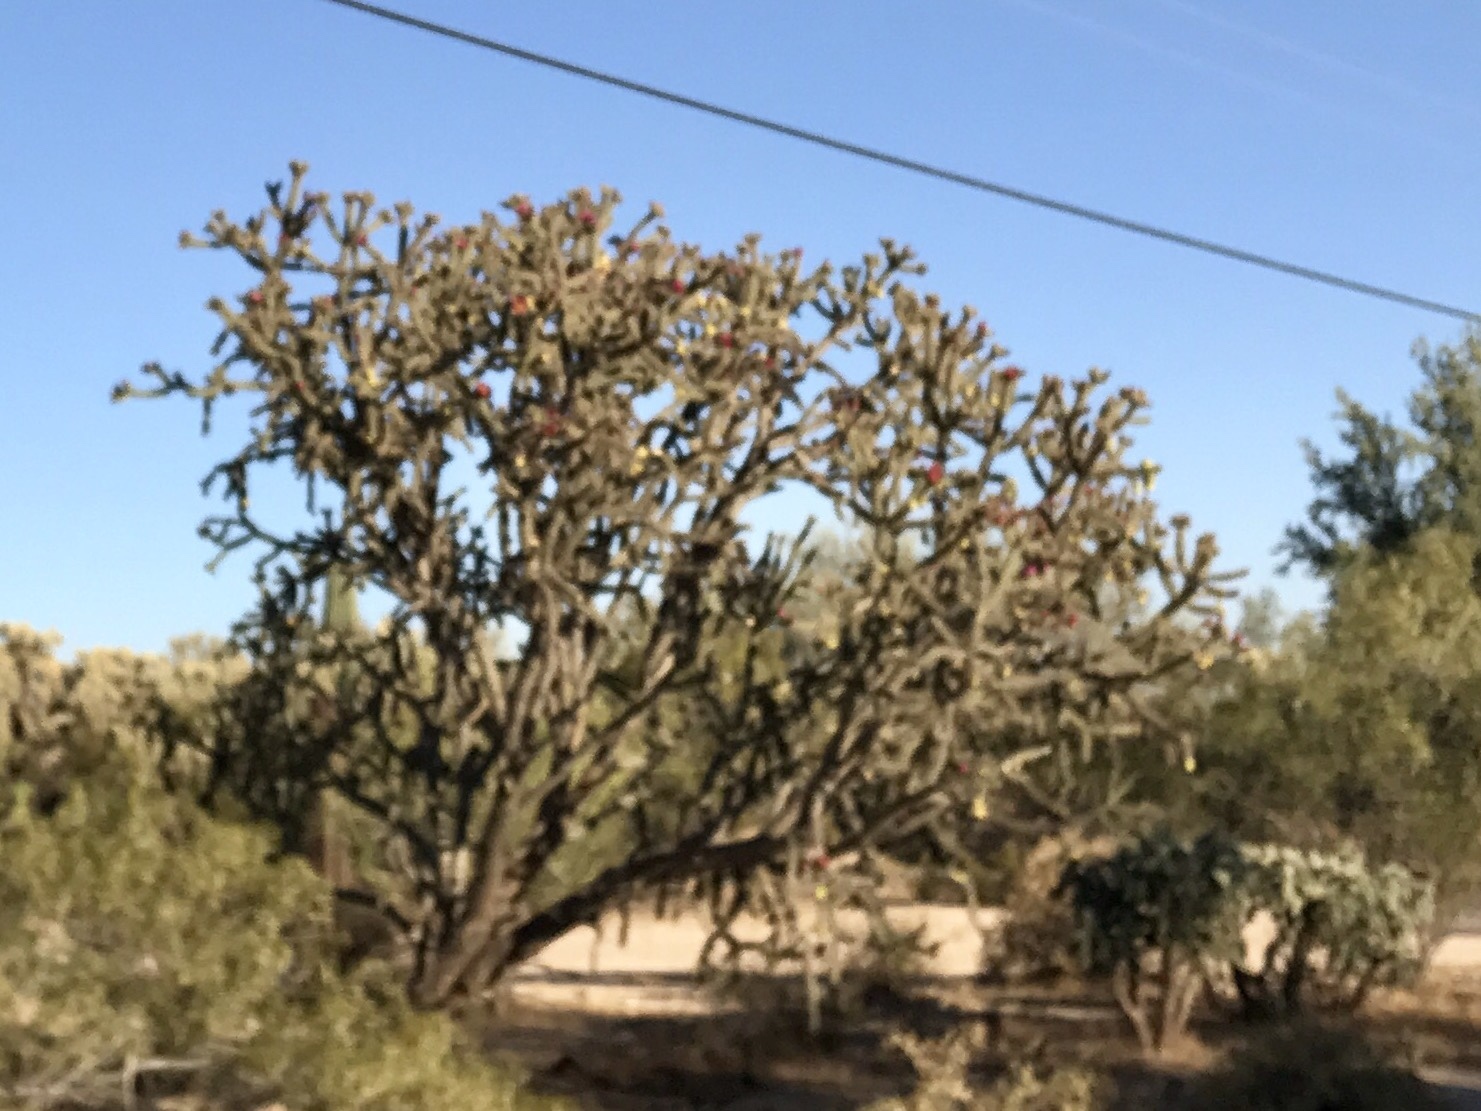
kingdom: Plantae
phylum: Tracheophyta
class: Magnoliopsida
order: Caryophyllales
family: Cactaceae
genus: Cylindropuntia
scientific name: Cylindropuntia thurberi
